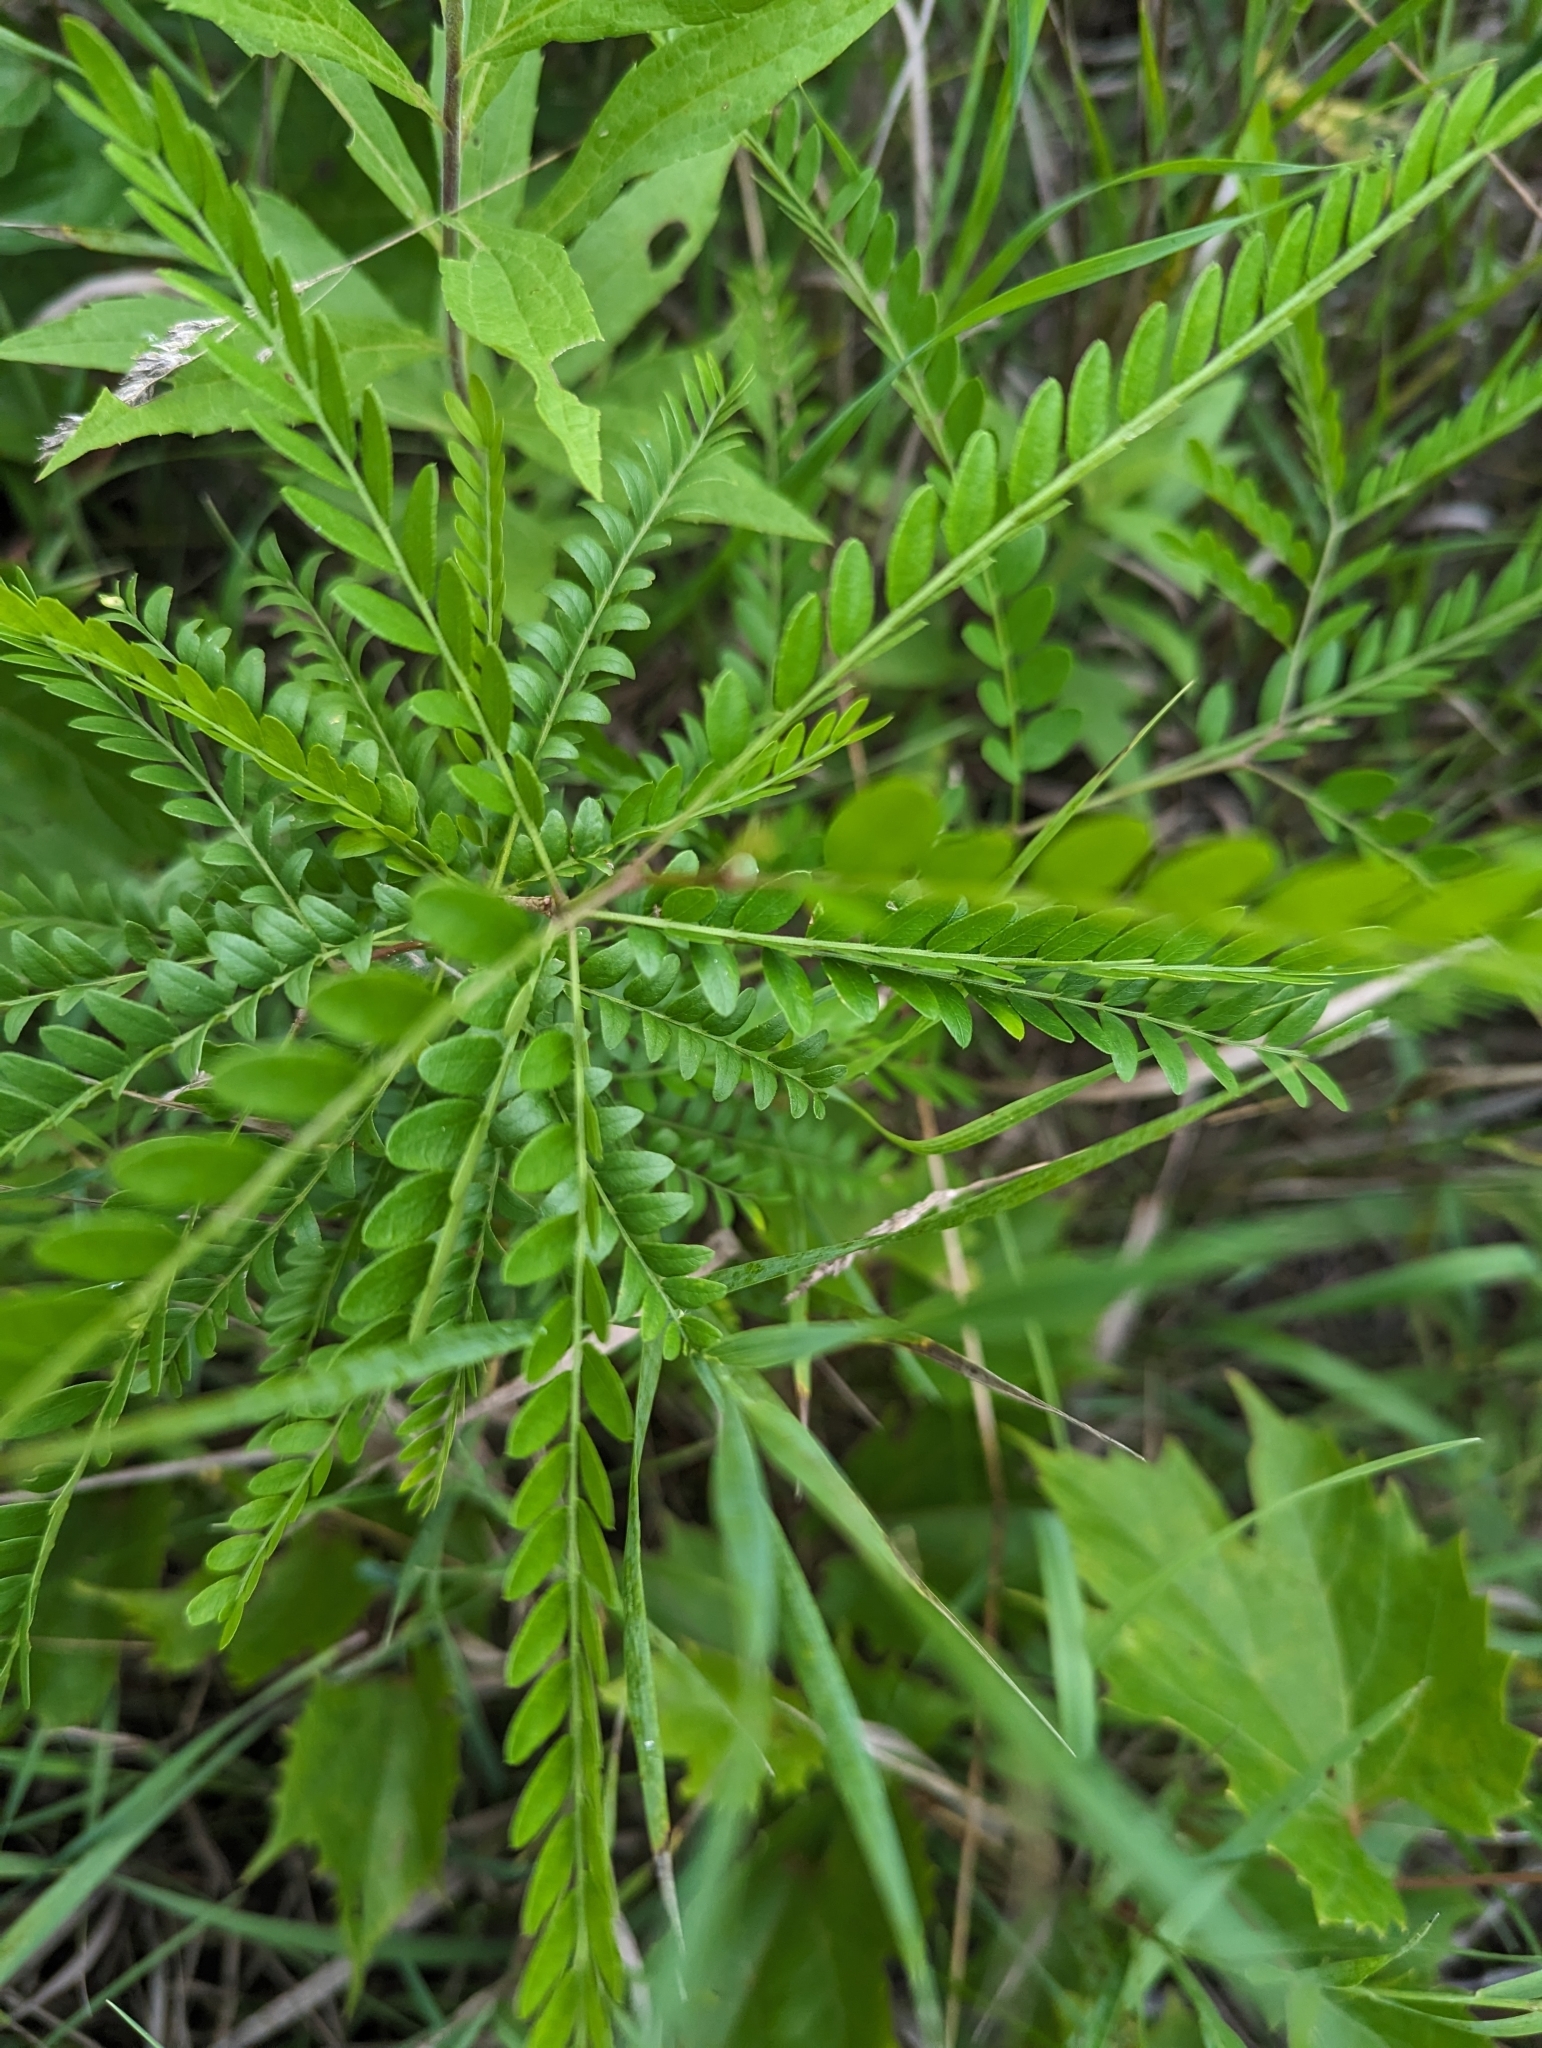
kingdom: Plantae
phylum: Tracheophyta
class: Magnoliopsida
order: Fabales
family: Fabaceae
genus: Gleditsia
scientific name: Gleditsia triacanthos
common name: Common honeylocust
